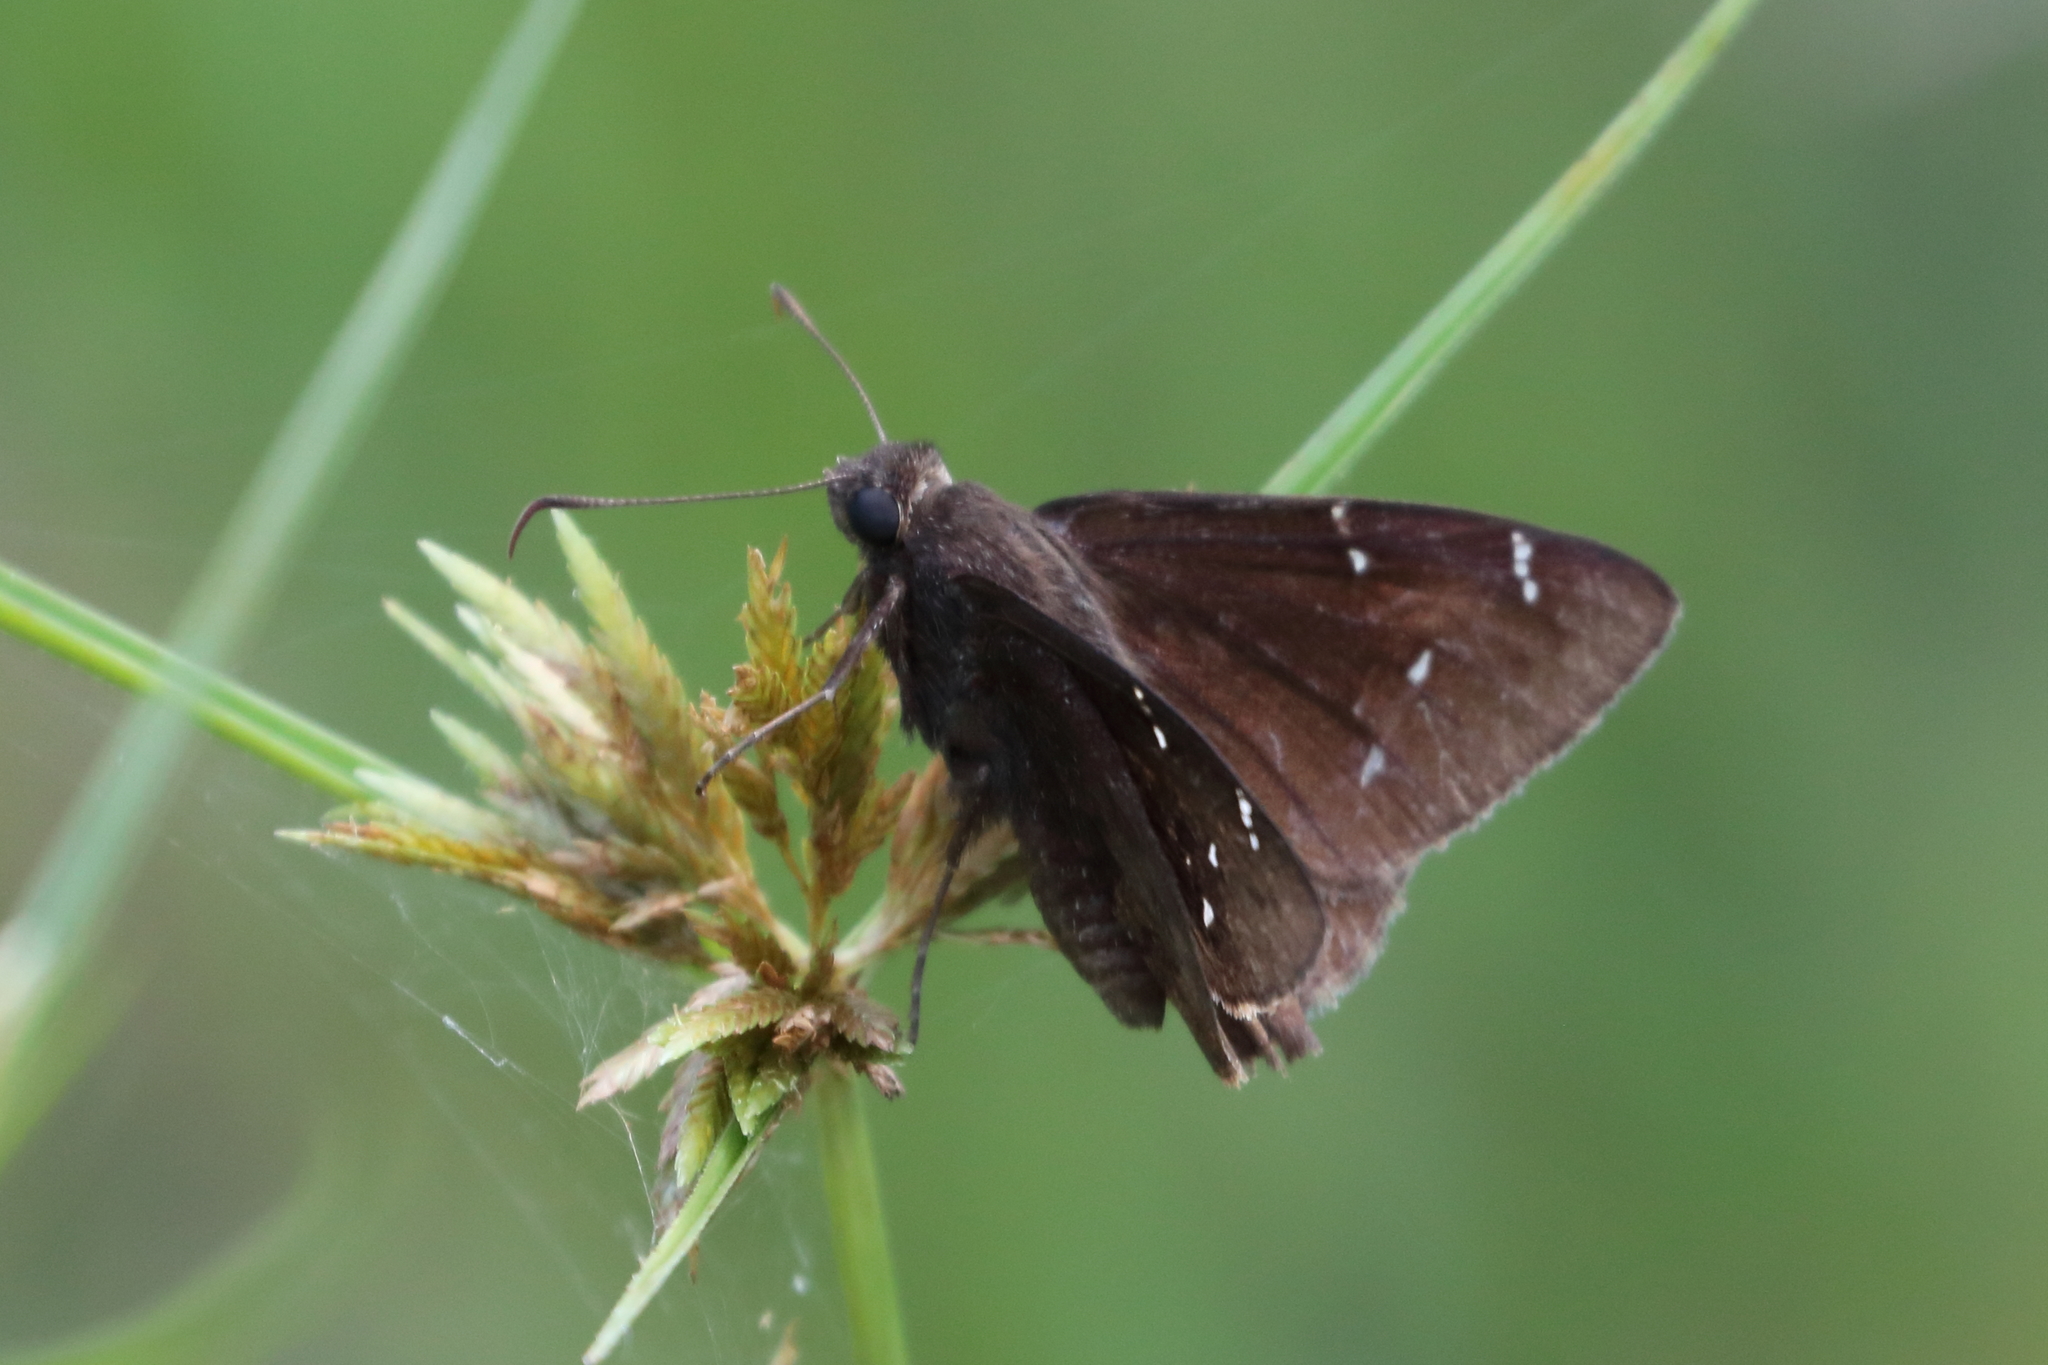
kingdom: Animalia
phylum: Arthropoda
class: Insecta
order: Lepidoptera
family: Hesperiidae
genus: Thorybes
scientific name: Thorybes pylades
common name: Northern cloudywing
